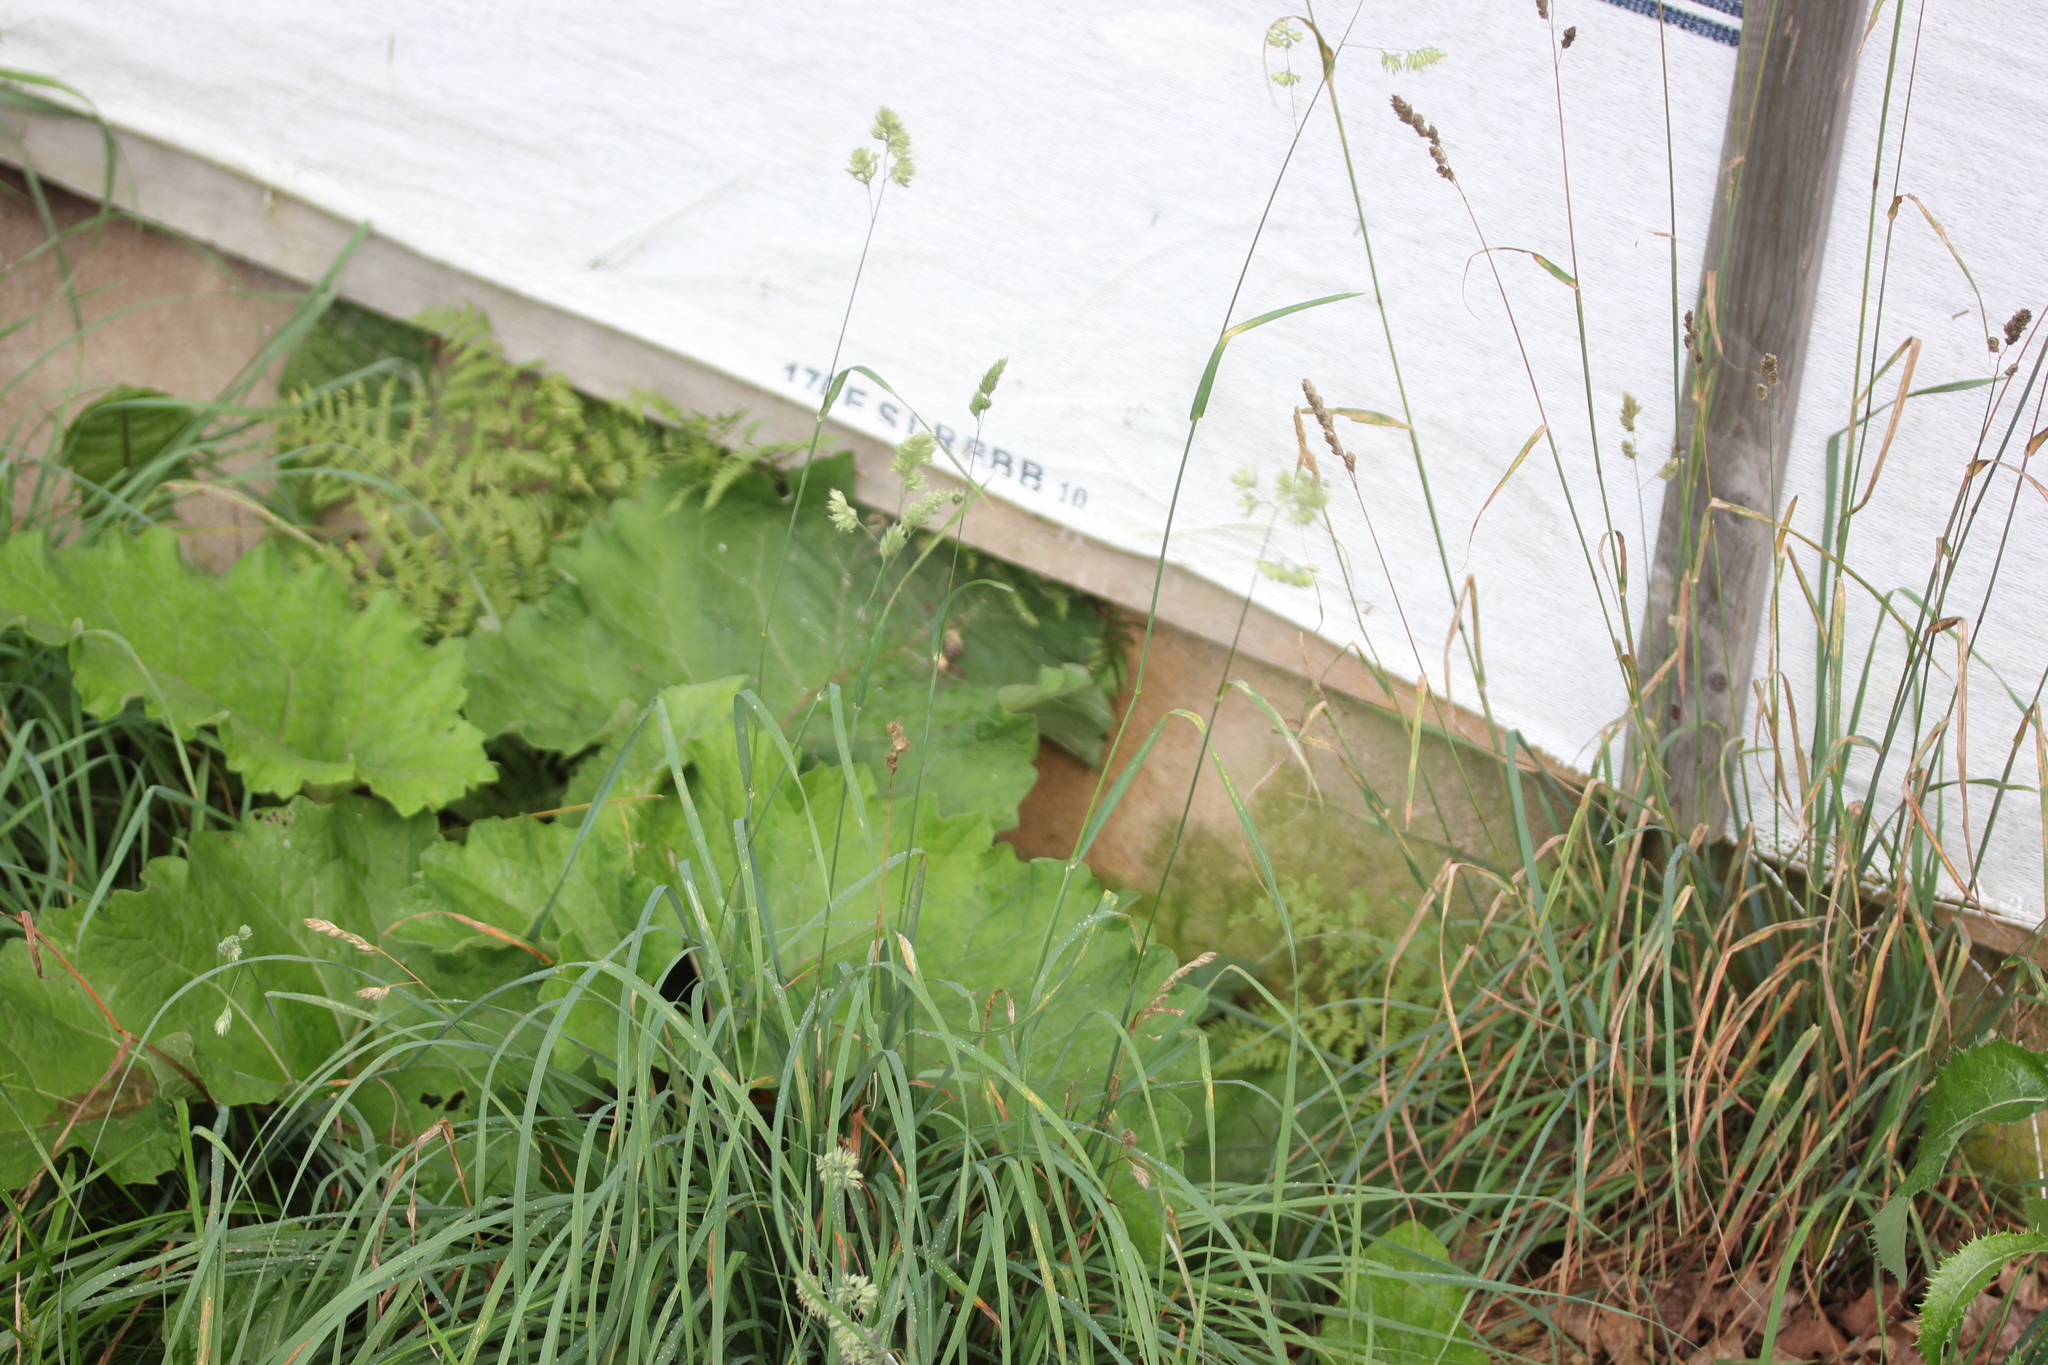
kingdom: Plantae
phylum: Tracheophyta
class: Liliopsida
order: Poales
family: Poaceae
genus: Dactylis
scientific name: Dactylis glomerata
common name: Orchardgrass
